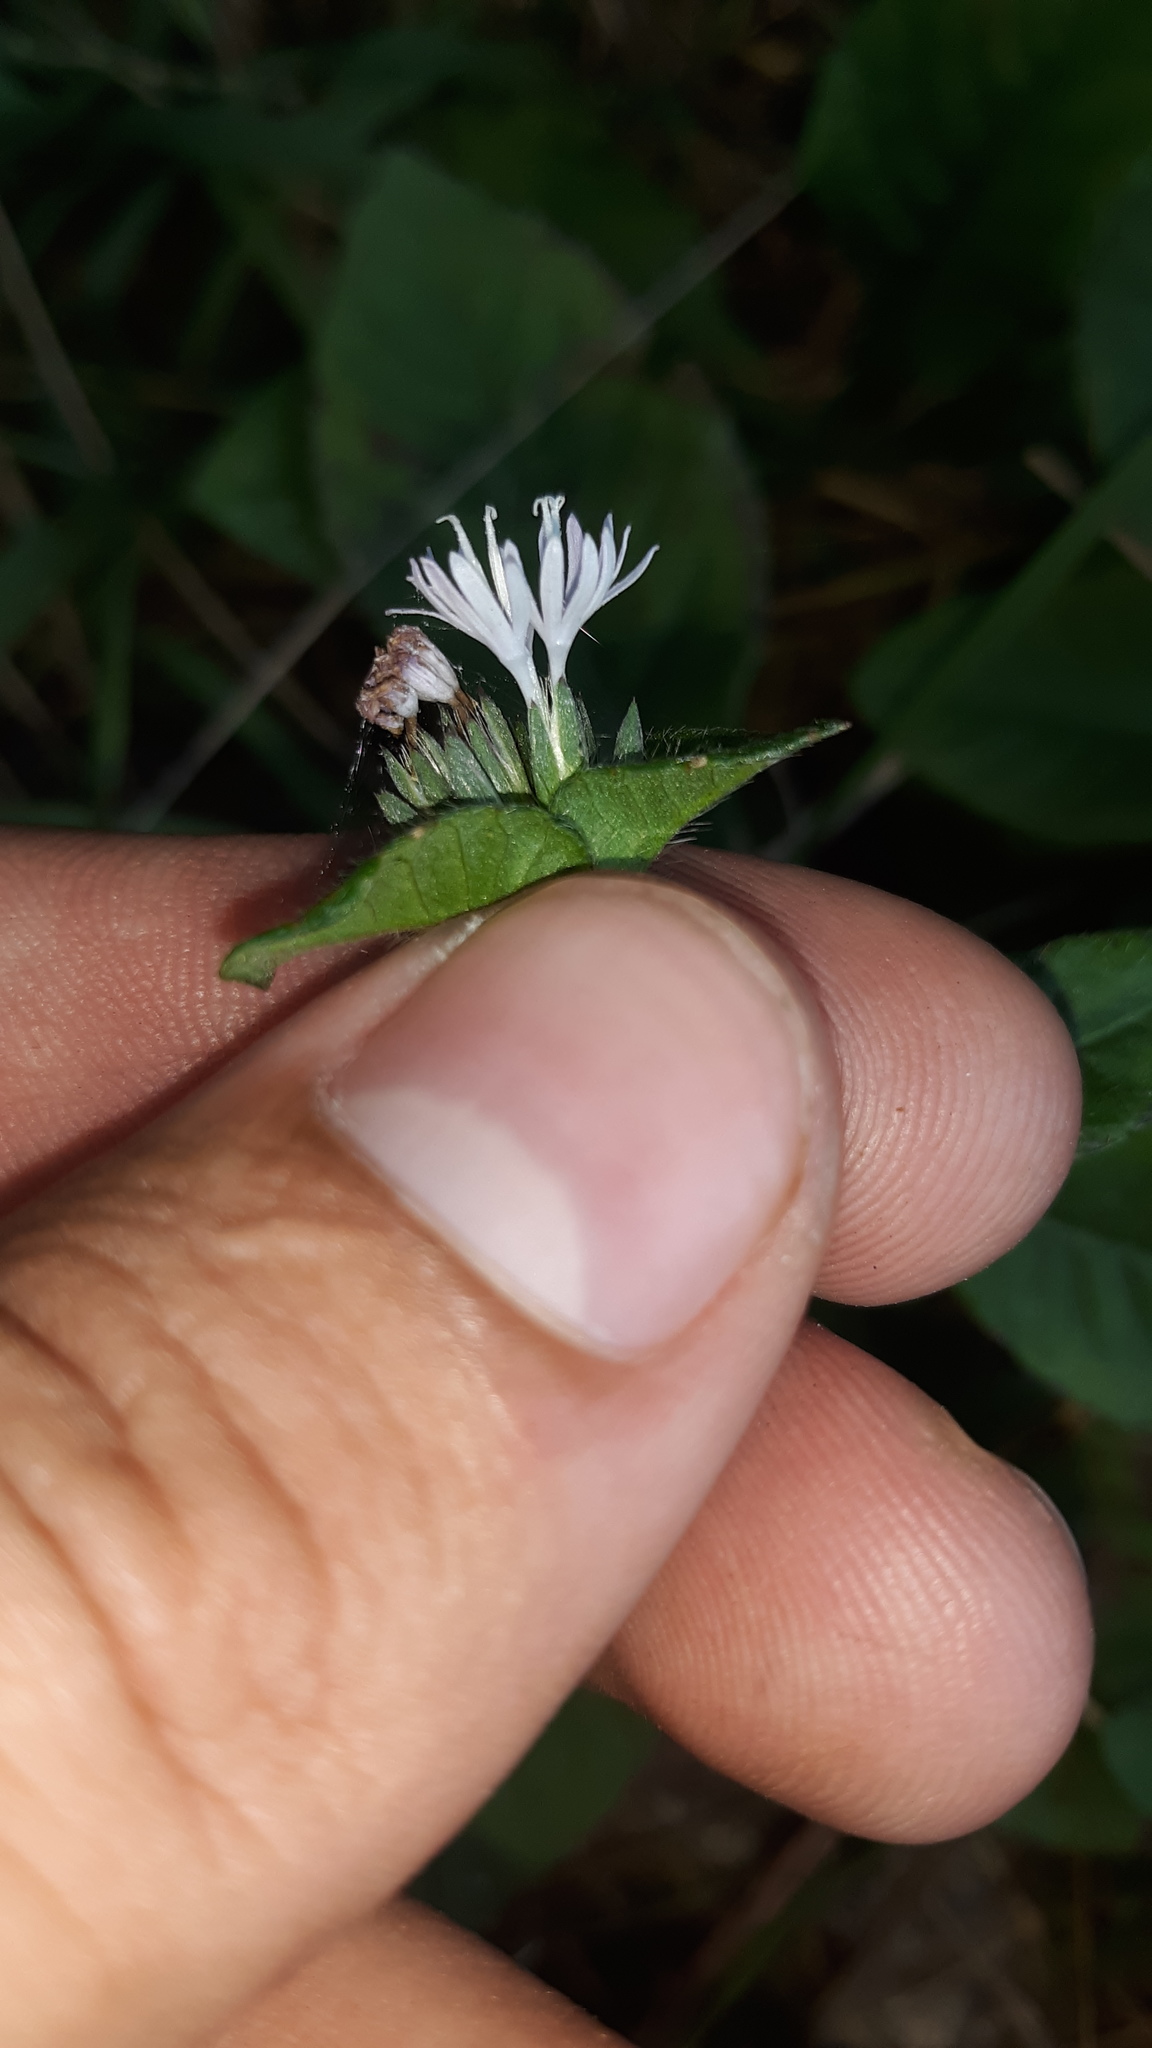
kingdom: Plantae
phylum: Tracheophyta
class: Magnoliopsida
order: Asterales
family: Asteraceae
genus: Elephantopus
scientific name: Elephantopus carolinianus
